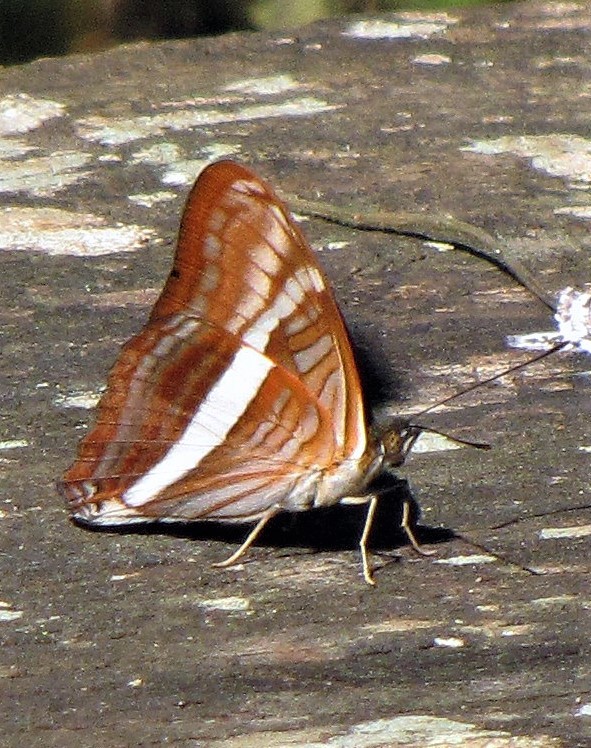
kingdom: Animalia
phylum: Arthropoda
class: Insecta
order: Lepidoptera
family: Nymphalidae
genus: Limenitis
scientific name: Limenitis calliphane
